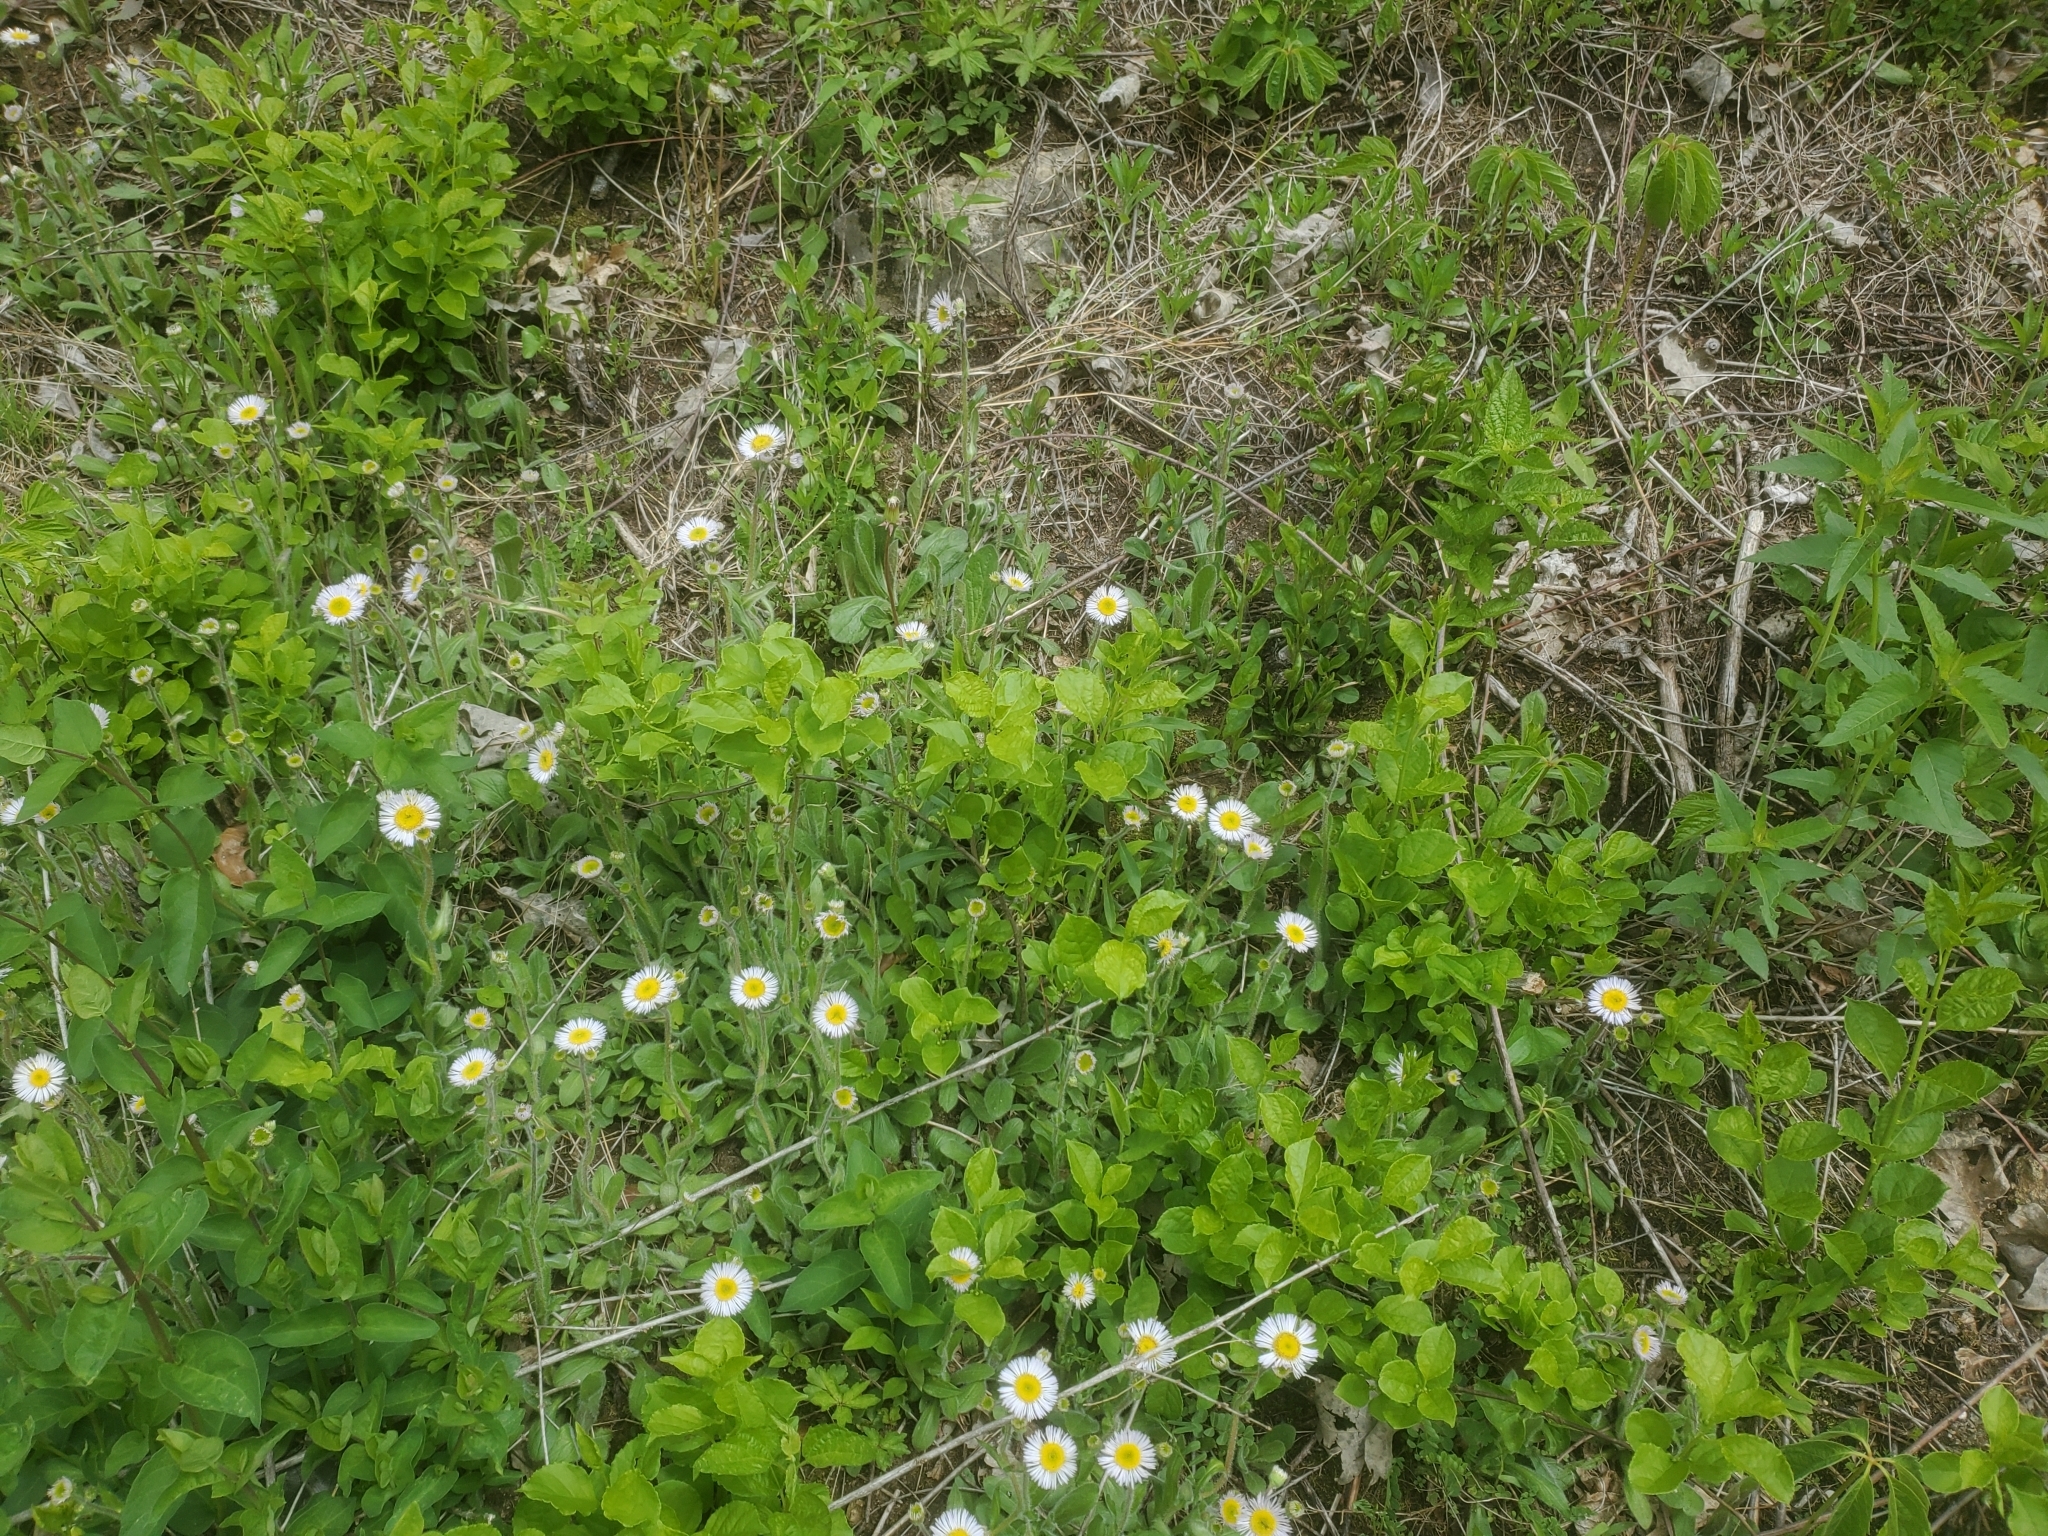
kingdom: Plantae
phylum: Tracheophyta
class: Magnoliopsida
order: Asterales
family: Asteraceae
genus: Erigeron
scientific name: Erigeron pulchellus
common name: Hairy fleabane
